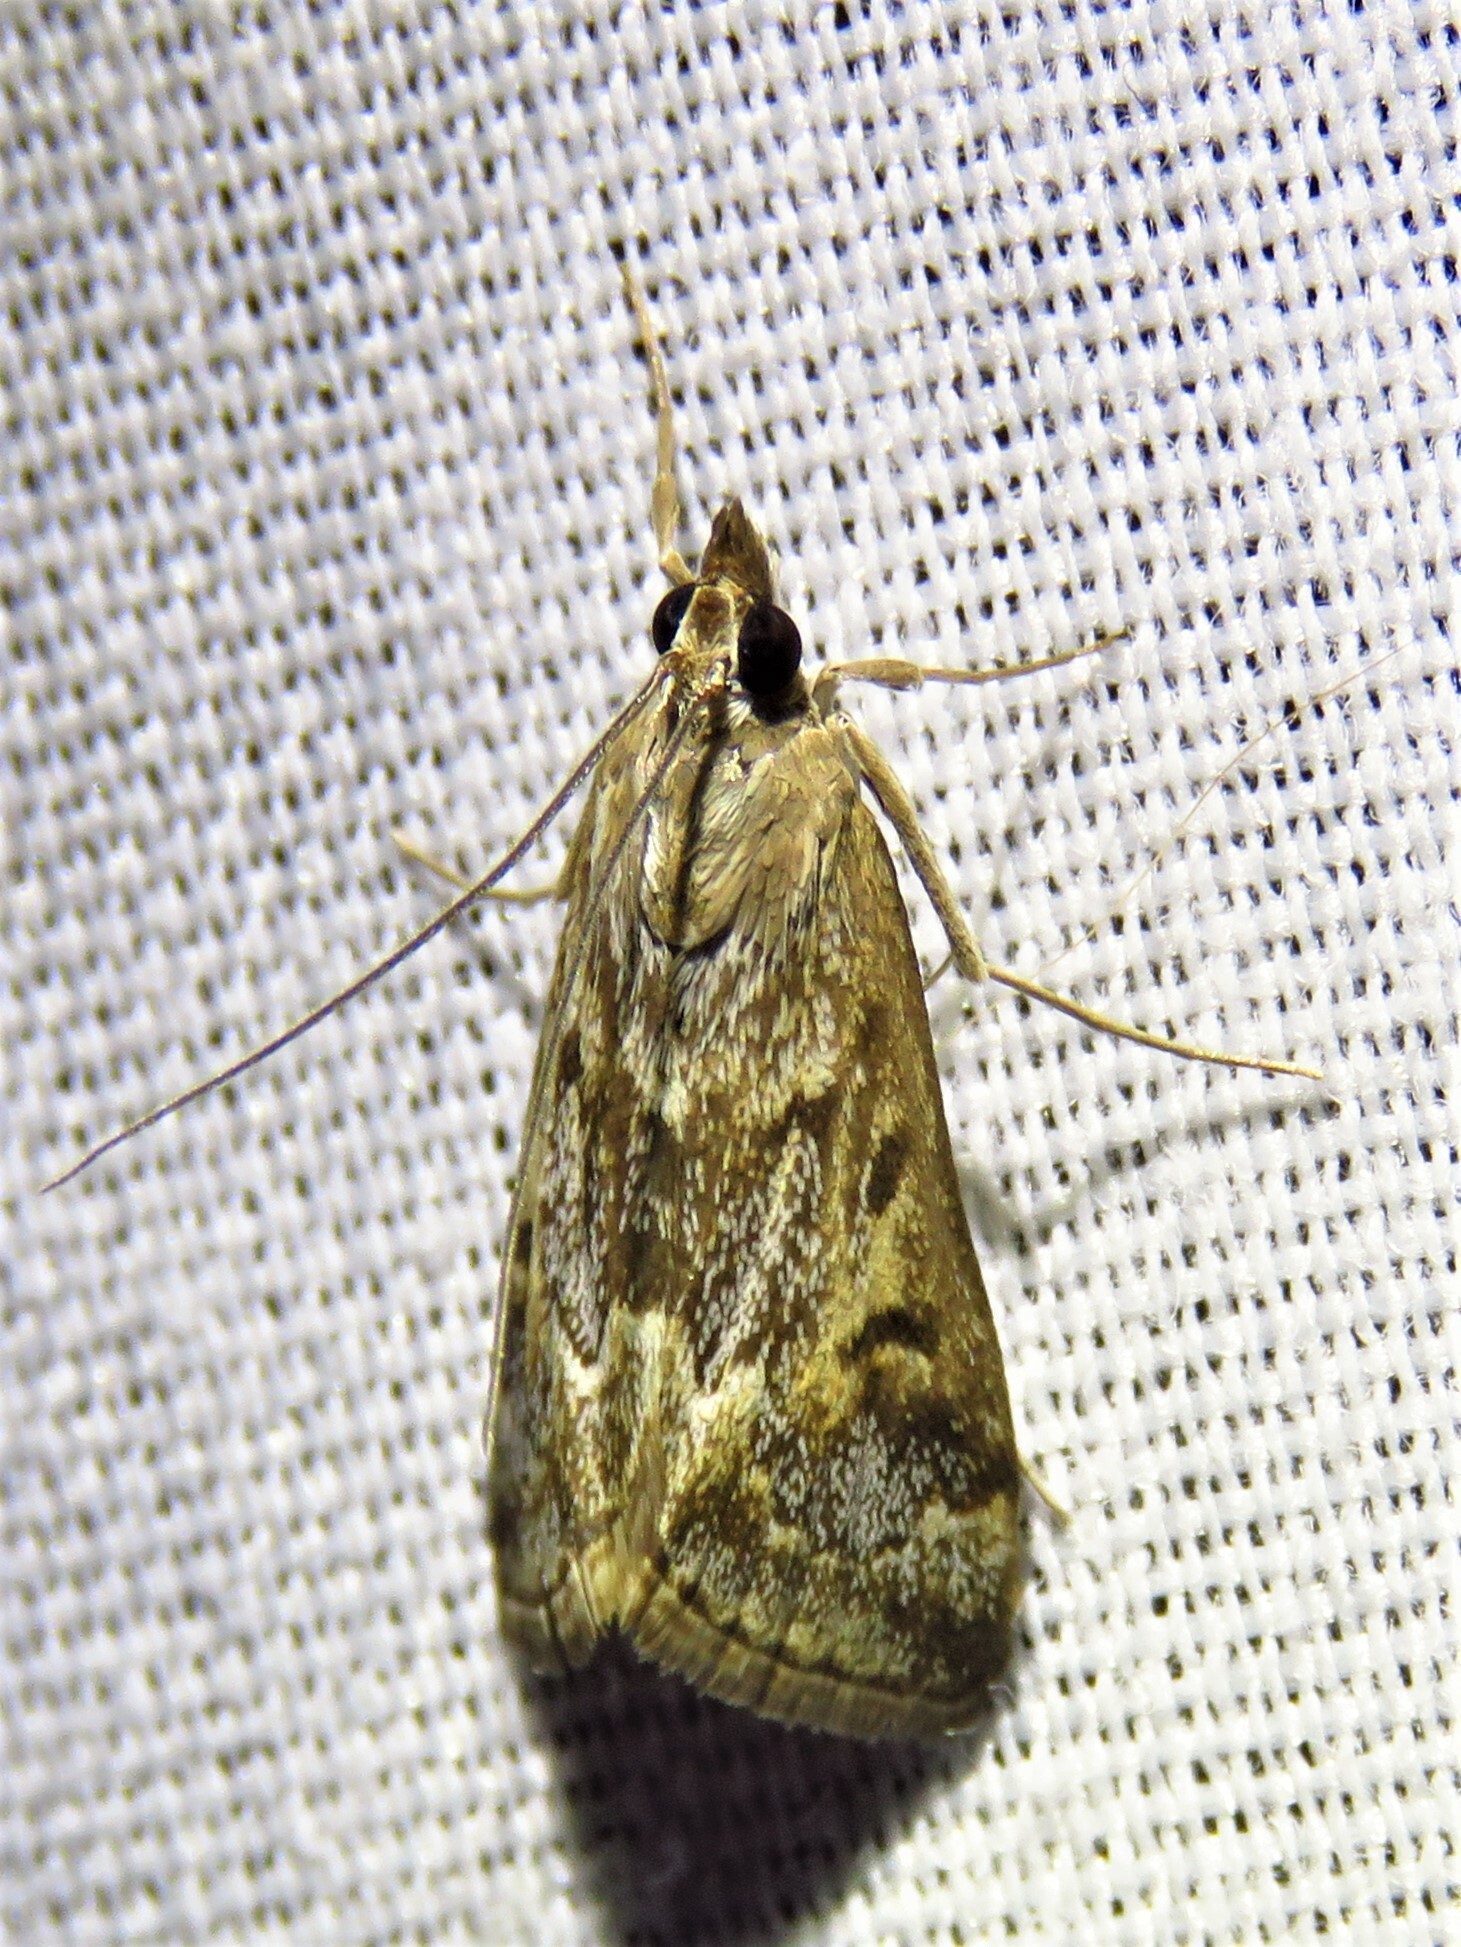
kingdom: Animalia
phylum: Arthropoda
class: Insecta
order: Lepidoptera
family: Crambidae
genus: Loxostege
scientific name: Loxostege allectalis
